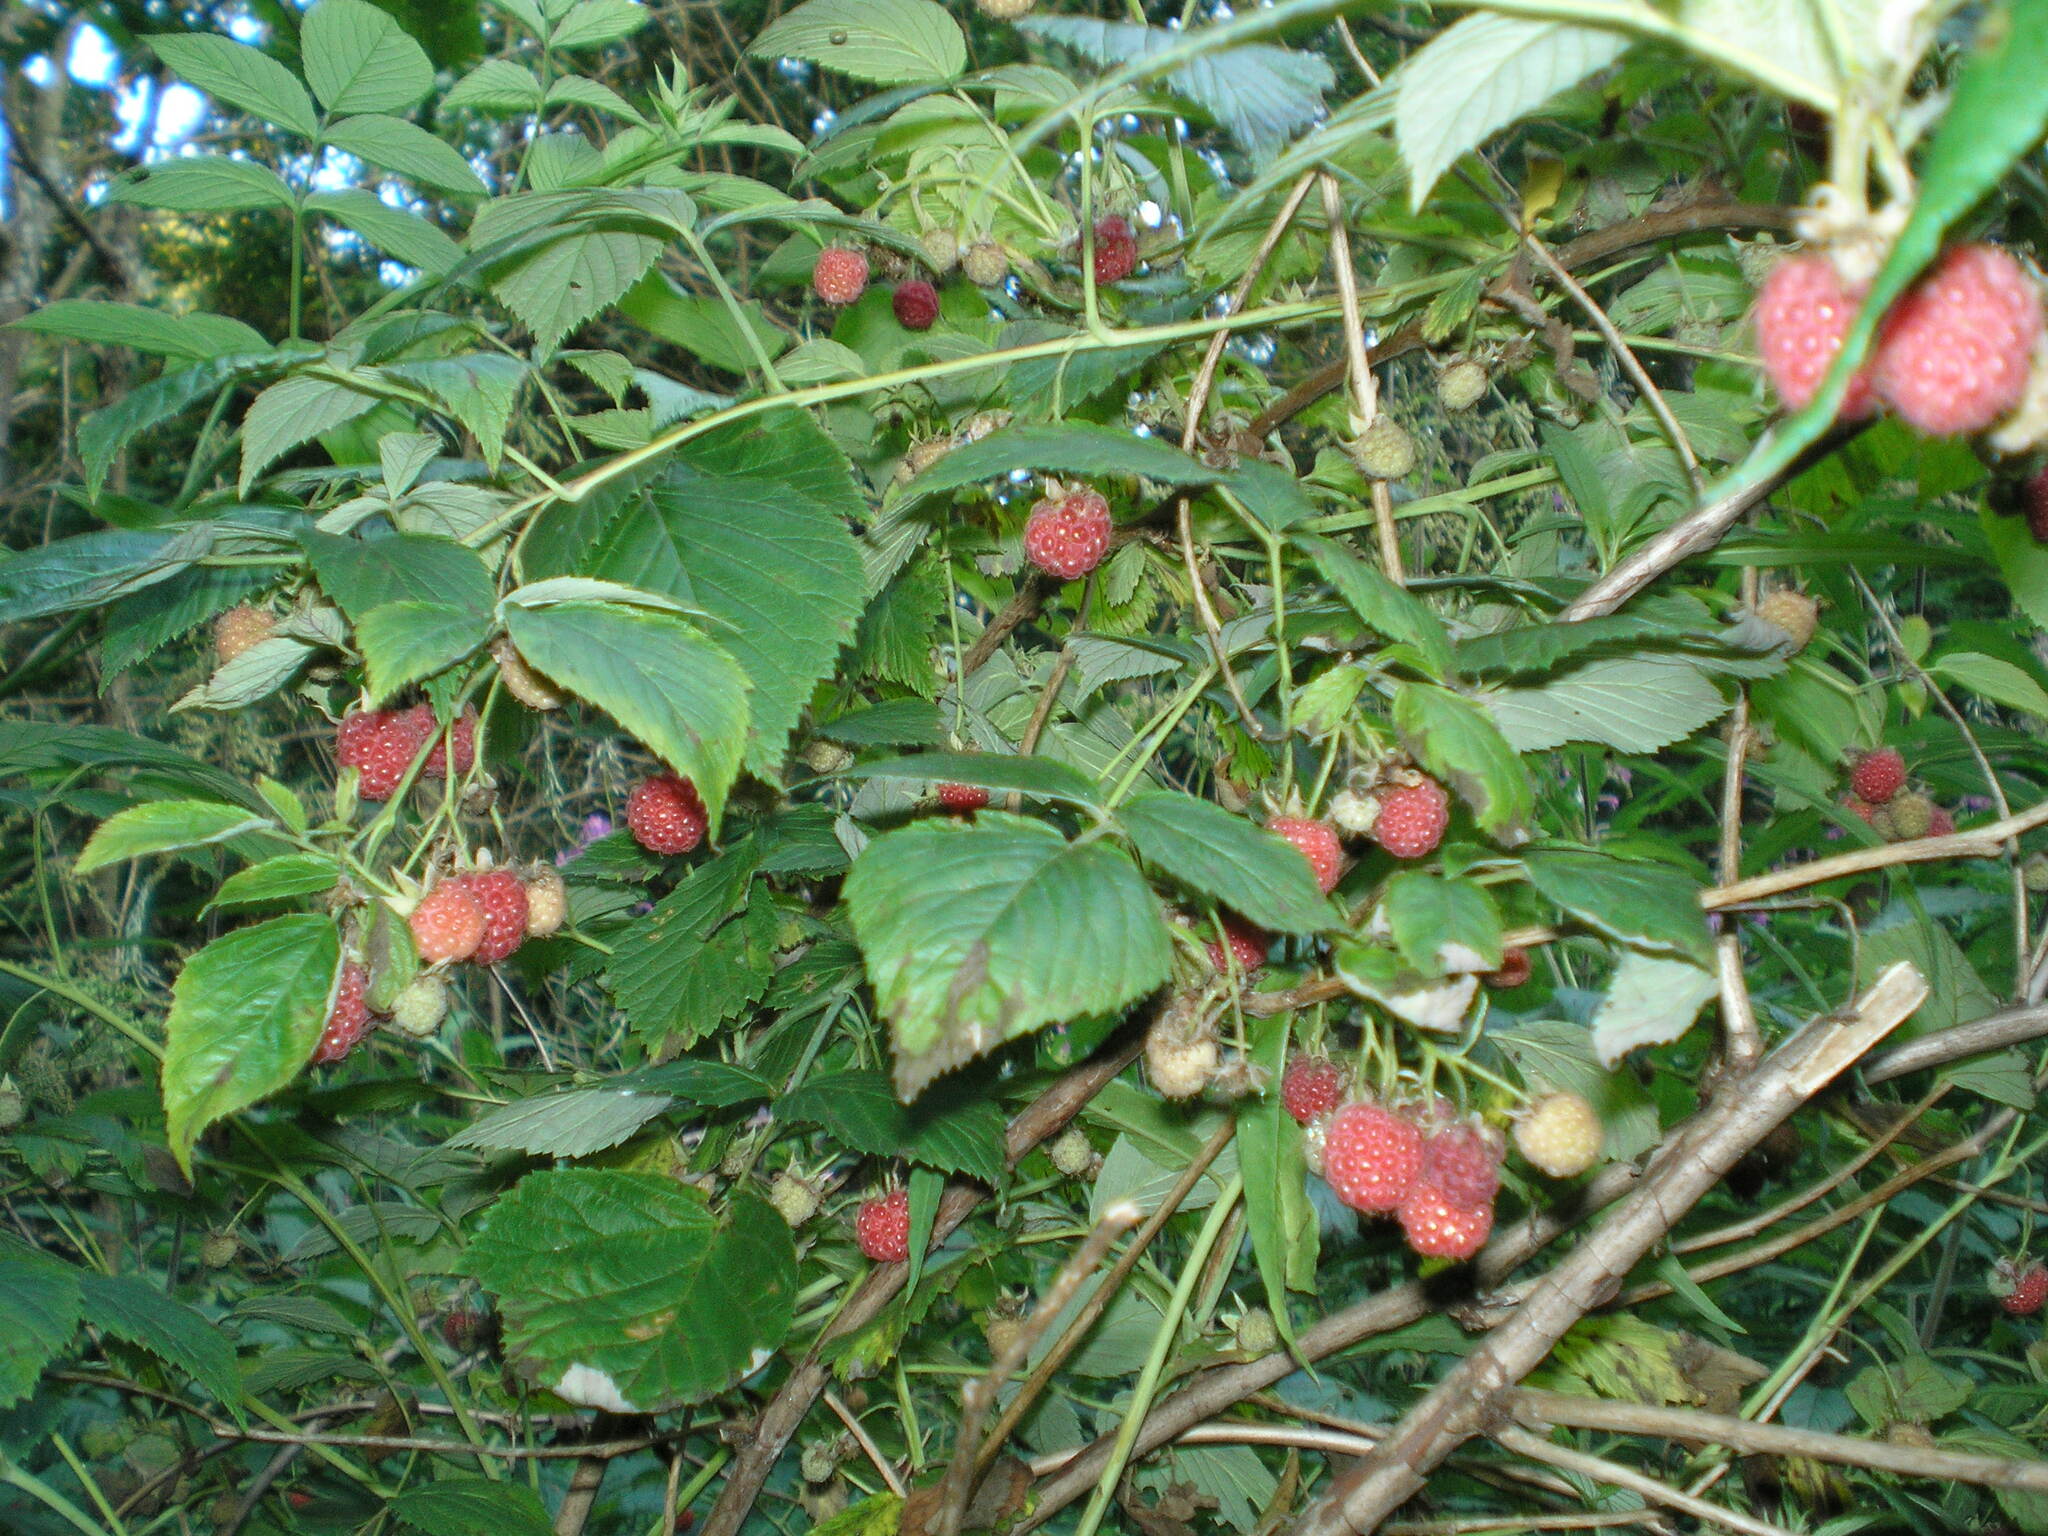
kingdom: Plantae
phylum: Tracheophyta
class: Magnoliopsida
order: Rosales
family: Rosaceae
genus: Rubus
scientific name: Rubus idaeus
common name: Raspberry
